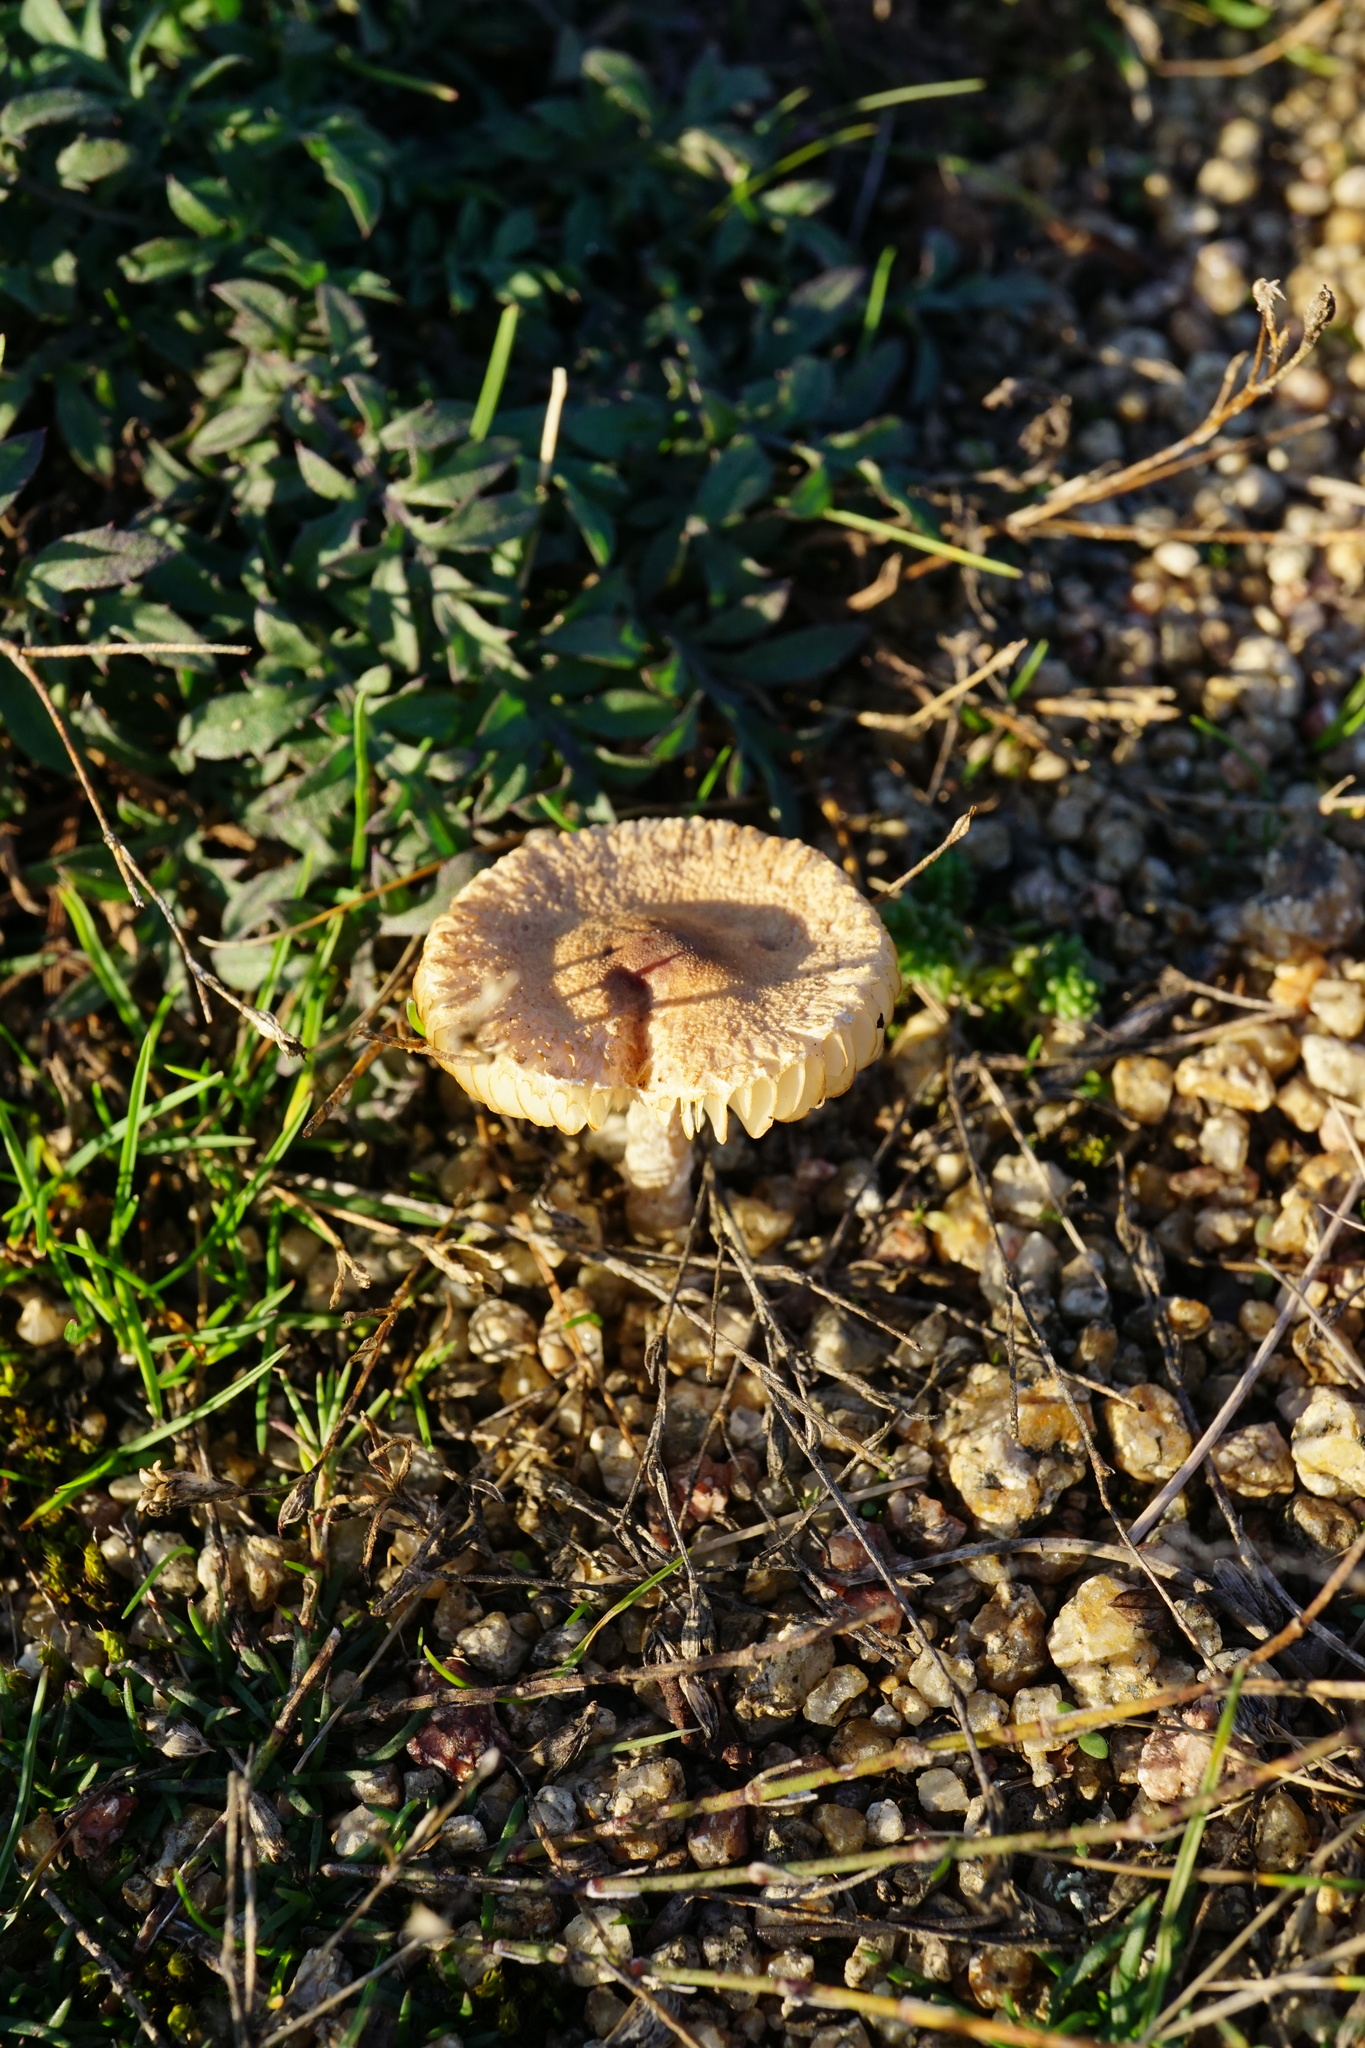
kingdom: Fungi
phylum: Basidiomycota
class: Agaricomycetes
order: Agaricales
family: Agaricaceae
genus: Lepiota
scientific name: Lepiota
